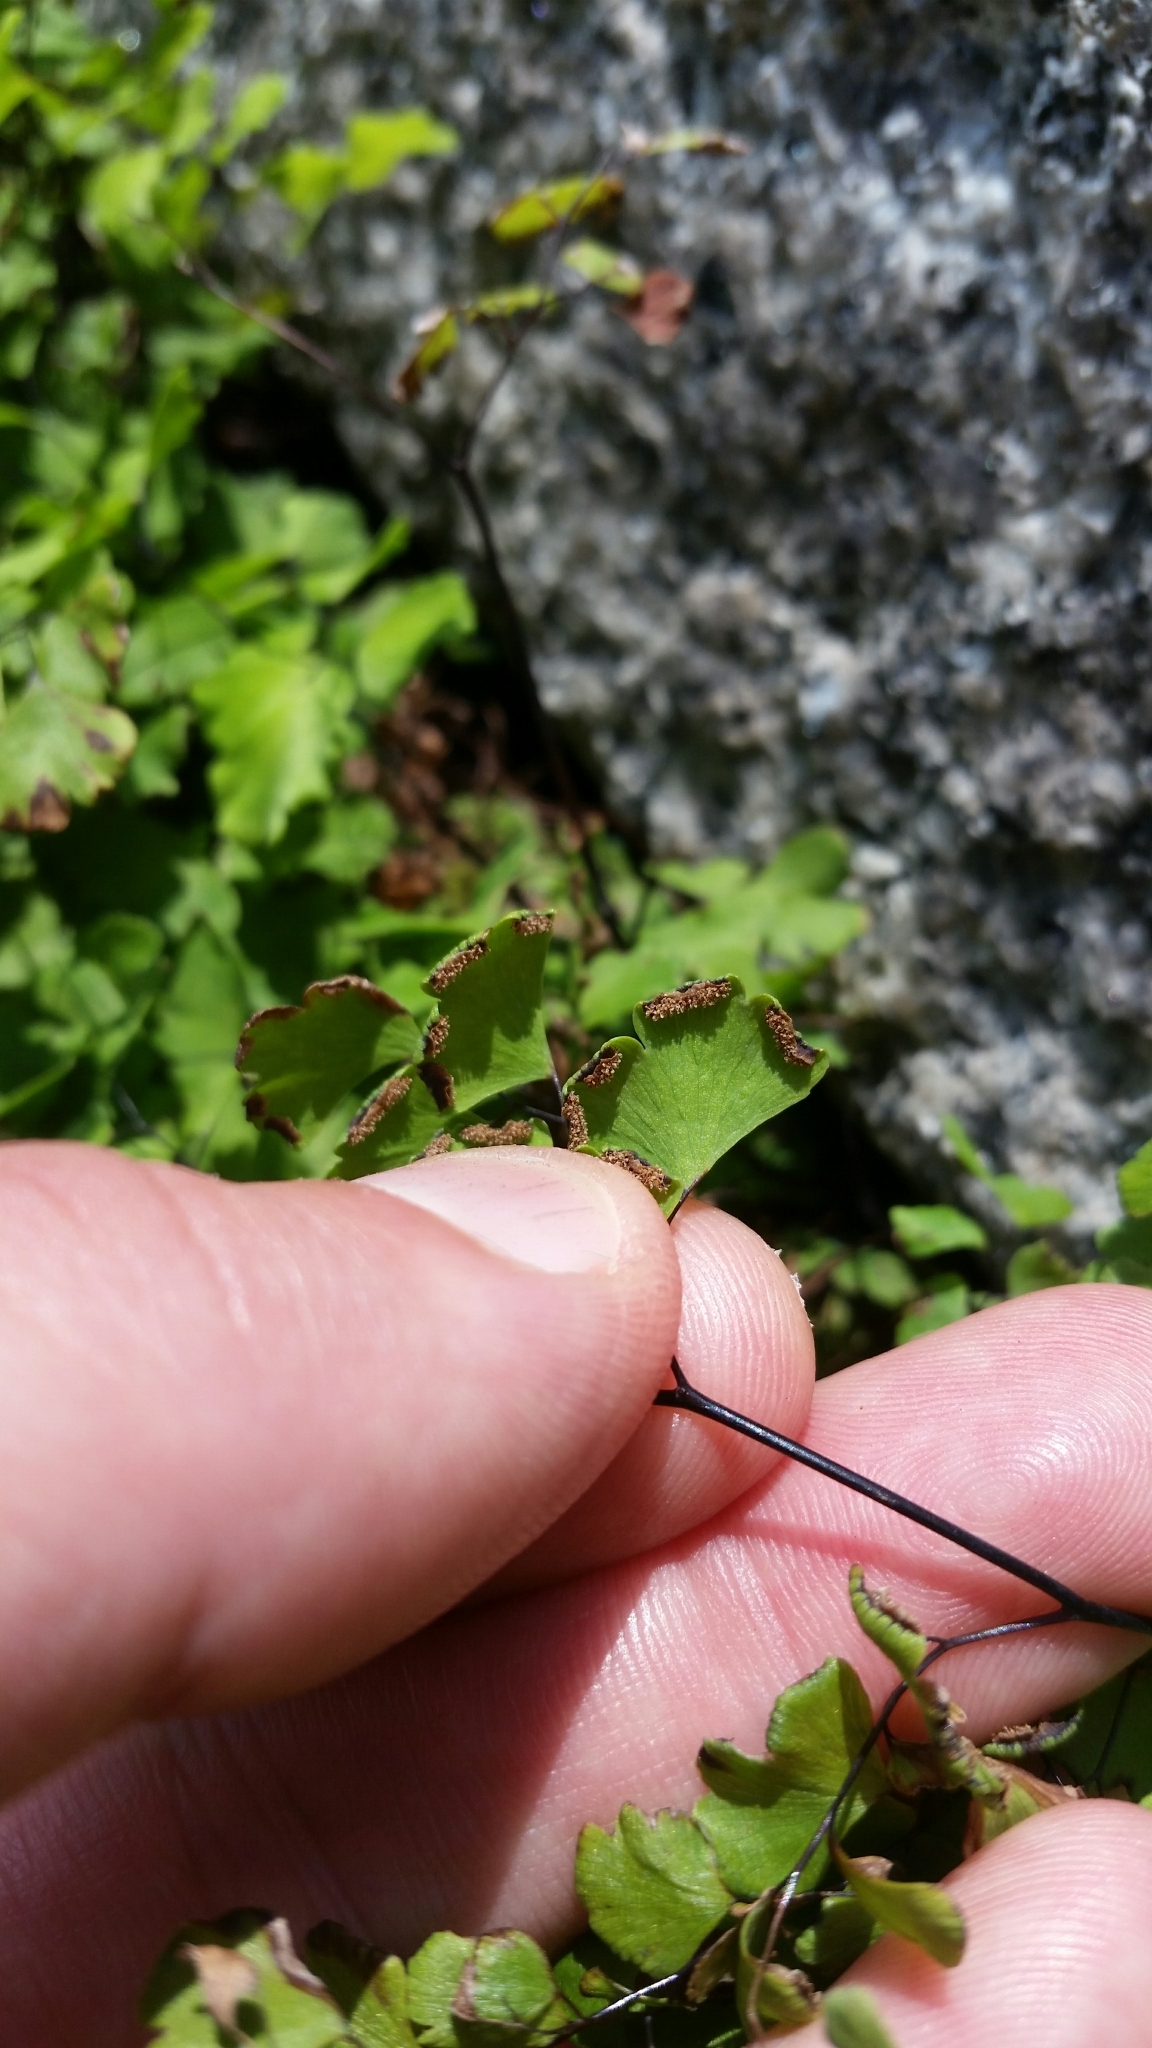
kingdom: Plantae
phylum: Tracheophyta
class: Polypodiopsida
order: Polypodiales
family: Pteridaceae
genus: Adiantum
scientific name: Adiantum capillus-veneris
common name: Maidenhair fern
